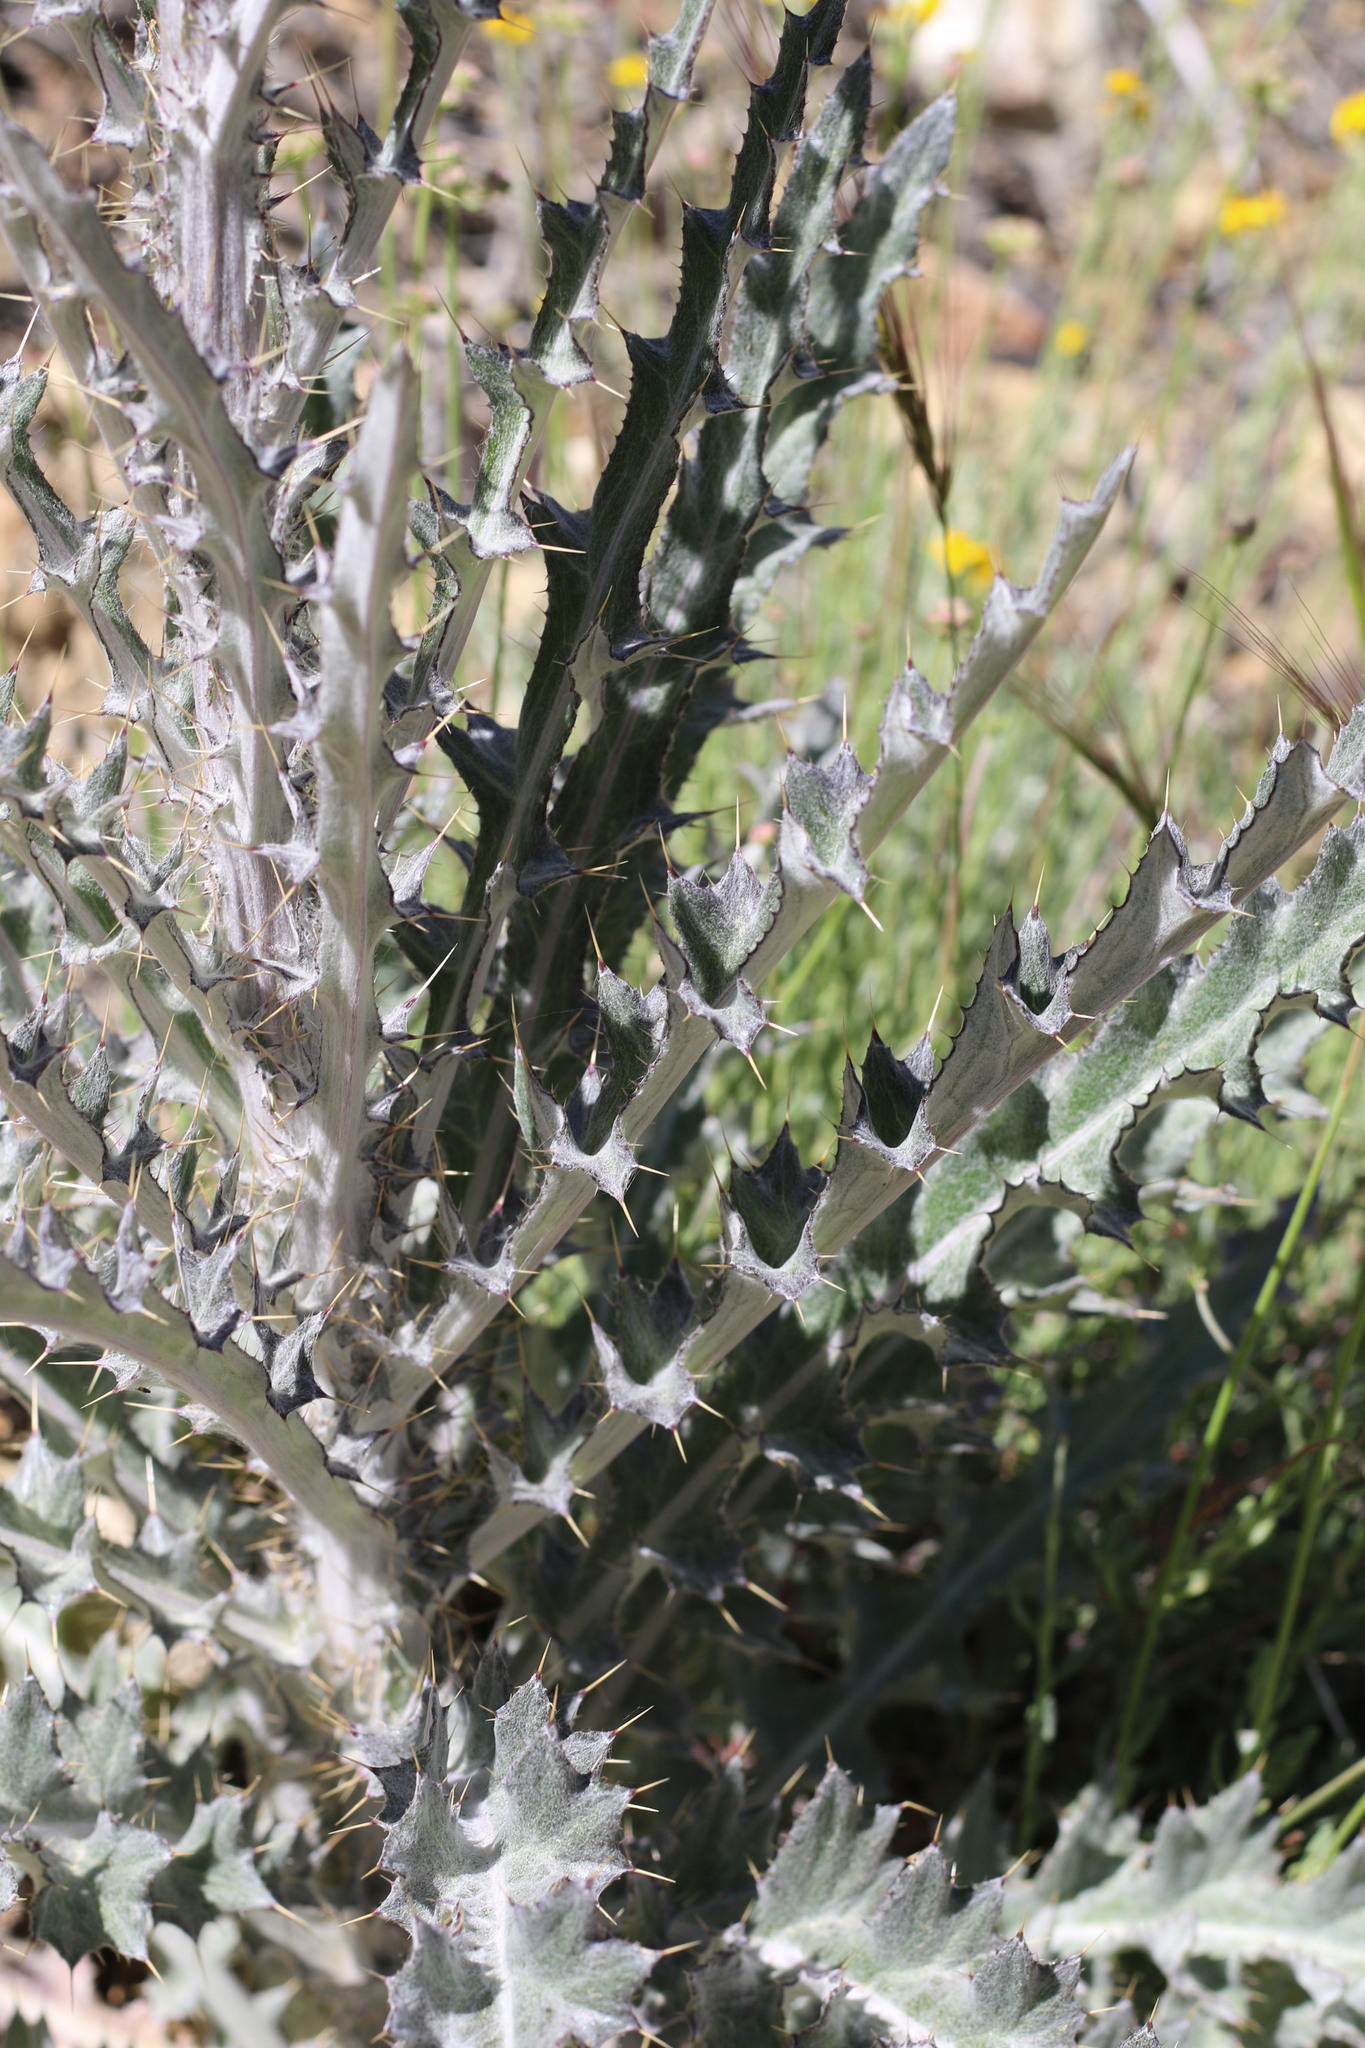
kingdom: Plantae
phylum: Tracheophyta
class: Magnoliopsida
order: Asterales
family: Asteraceae
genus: Cirsium
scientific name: Cirsium occidentale
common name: Western thistle
